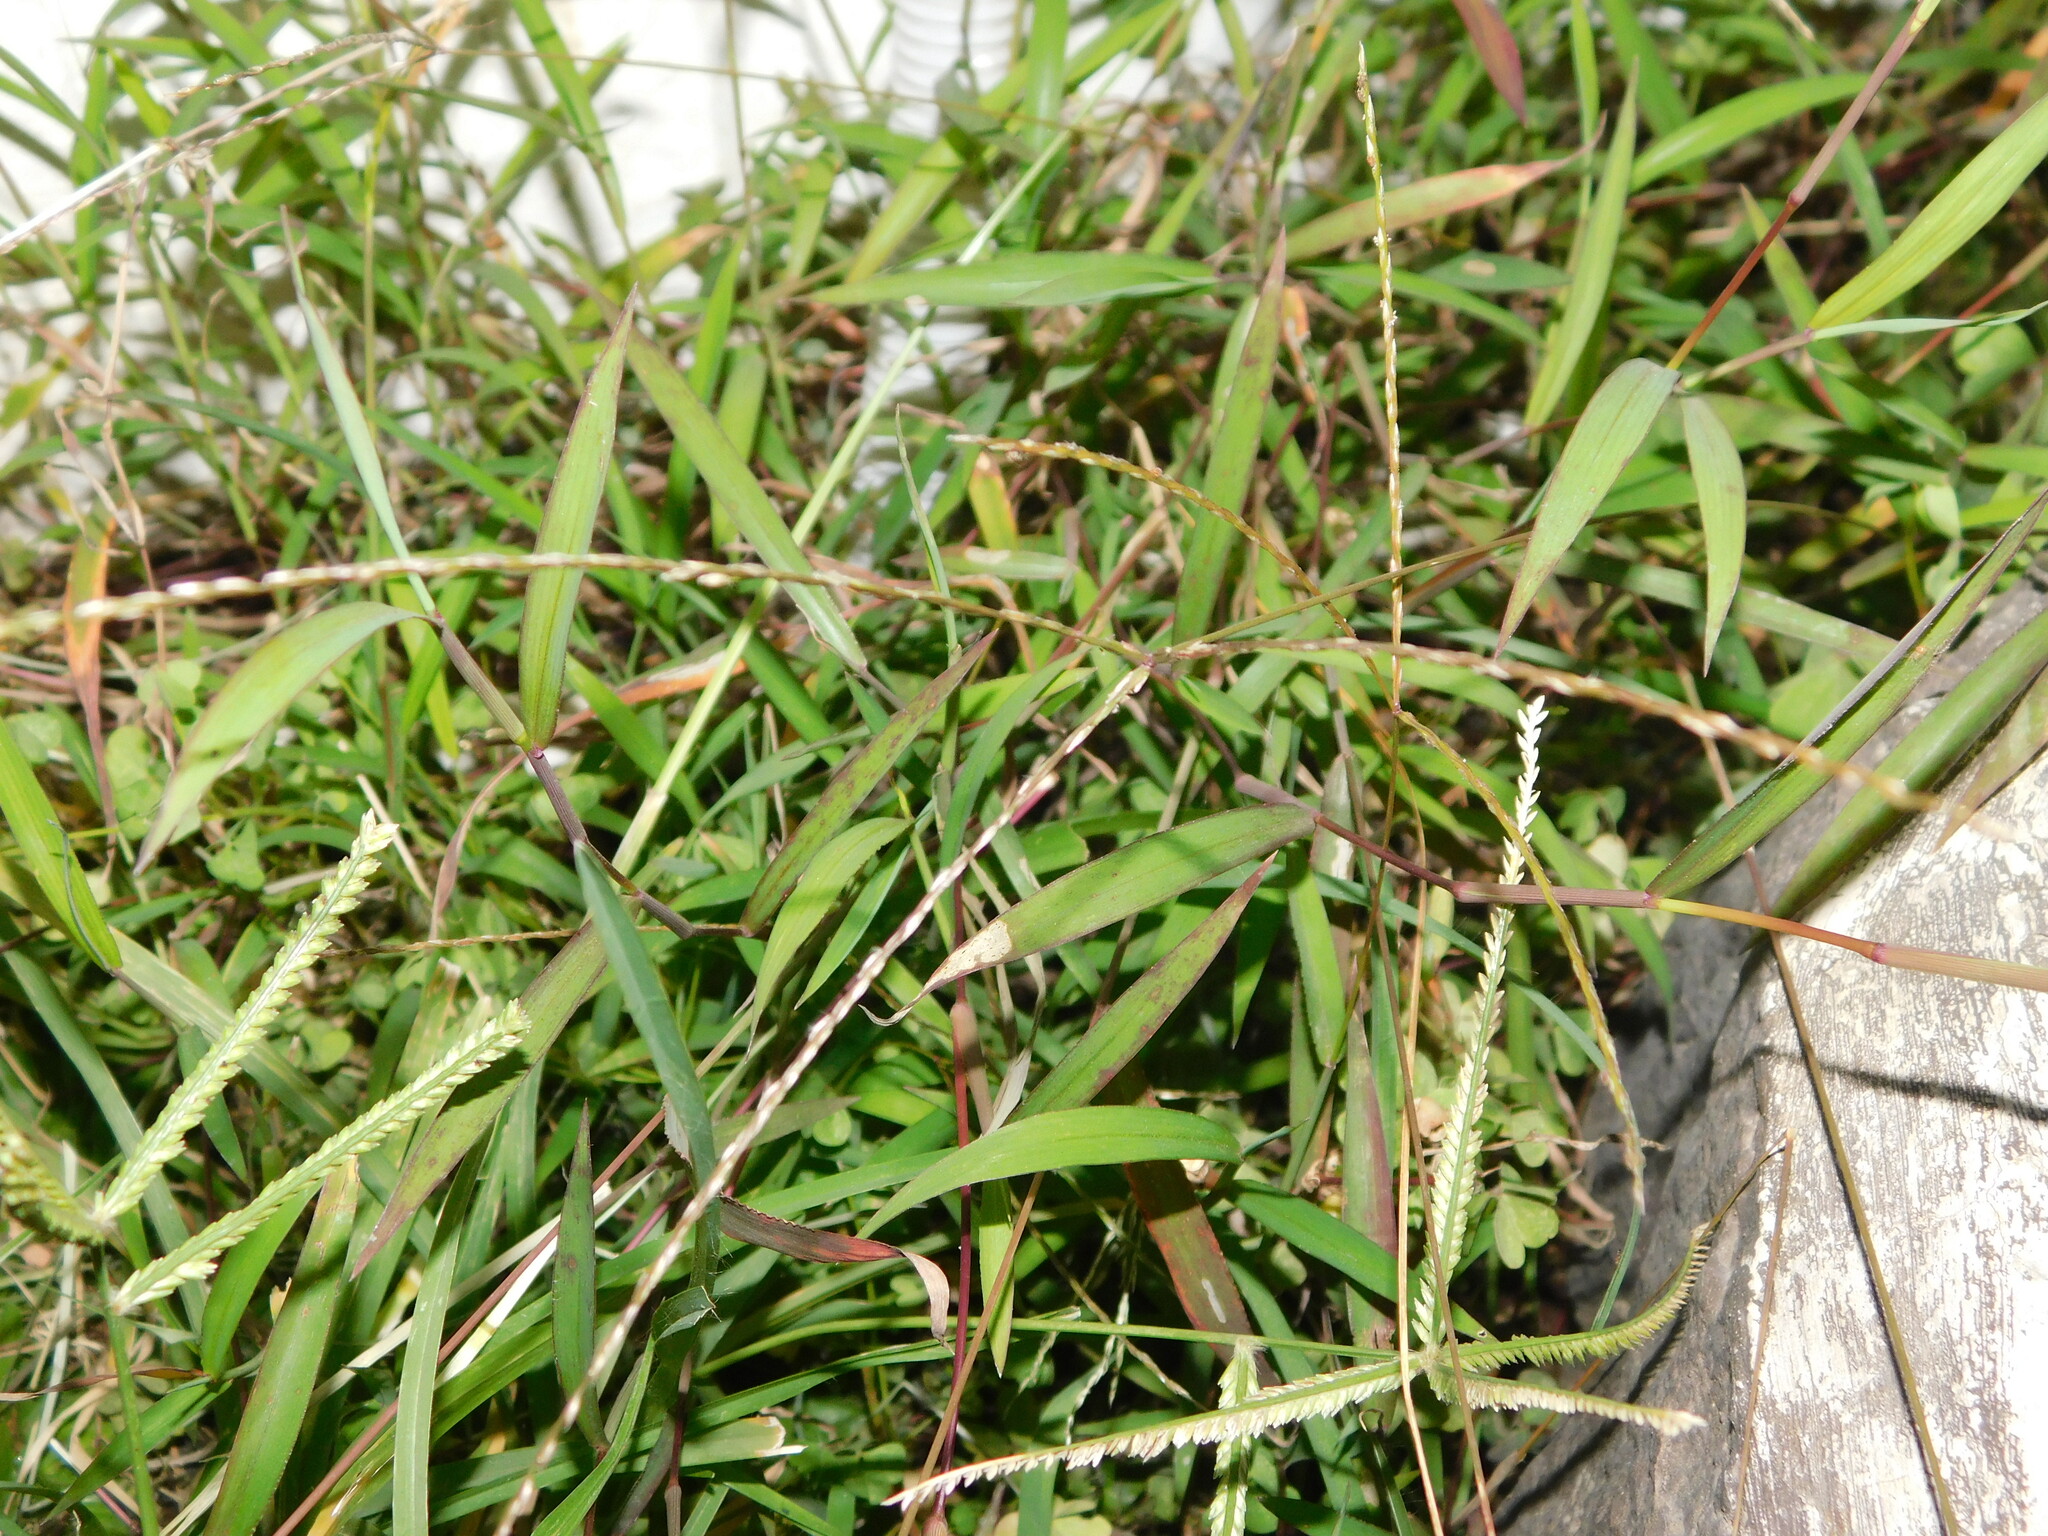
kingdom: Plantae
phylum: Tracheophyta
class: Liliopsida
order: Poales
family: Poaceae
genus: Digitaria
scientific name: Digitaria radicosa
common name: Trailing crabgrass
